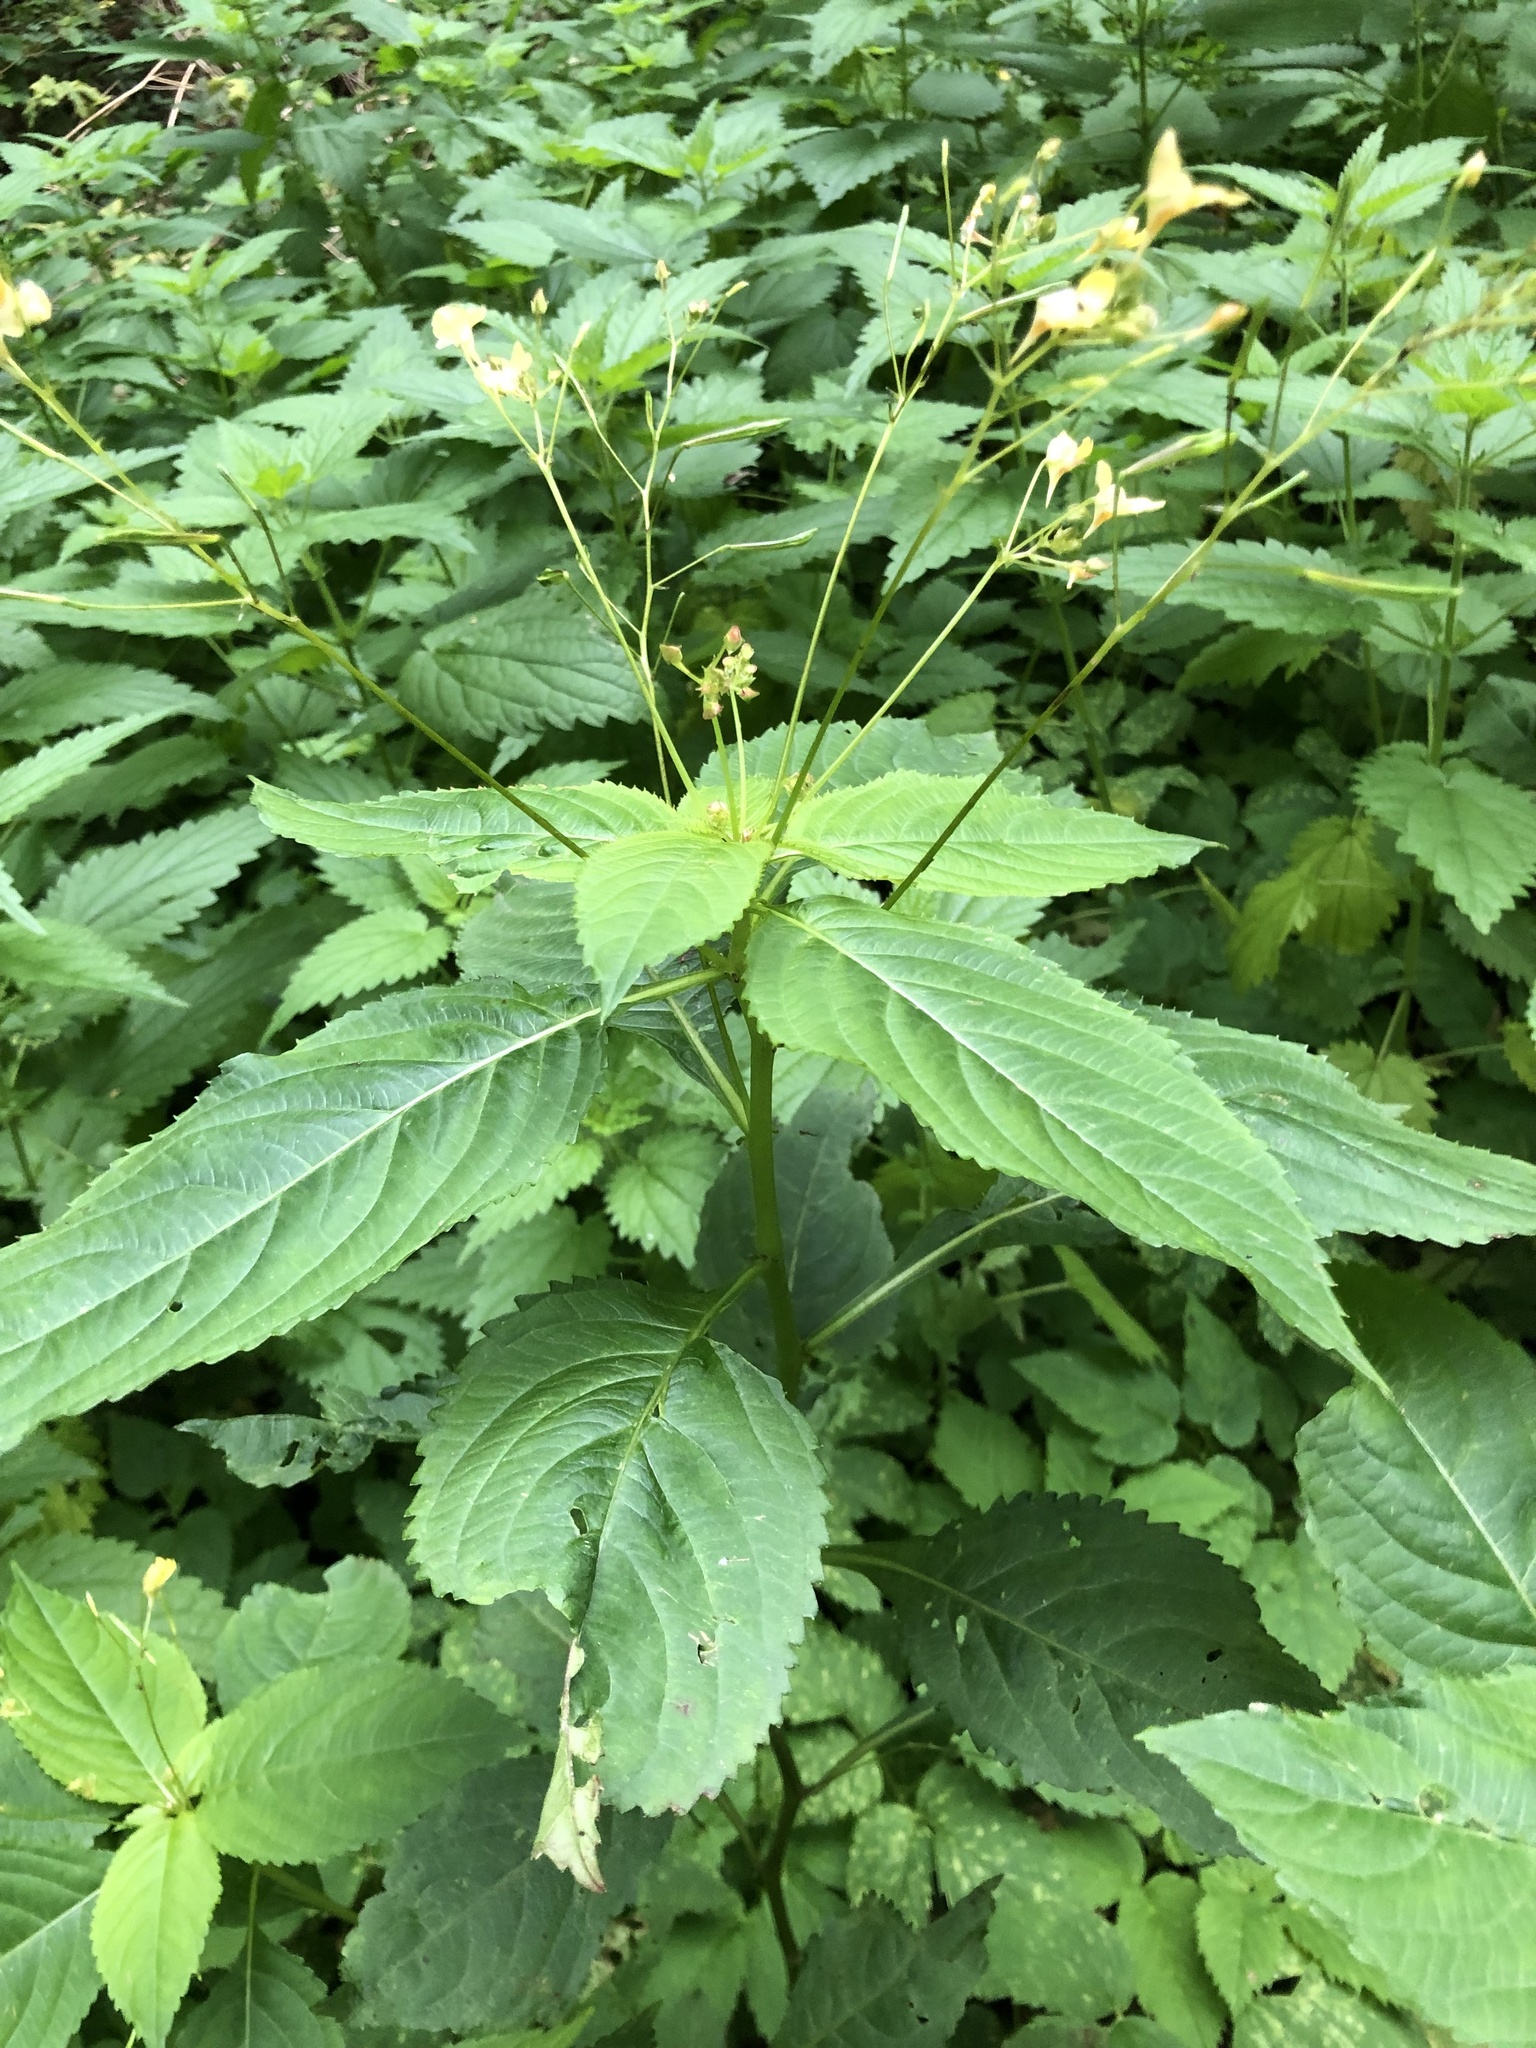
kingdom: Plantae
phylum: Tracheophyta
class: Magnoliopsida
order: Ericales
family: Balsaminaceae
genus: Impatiens
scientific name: Impatiens parviflora
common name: Small balsam
